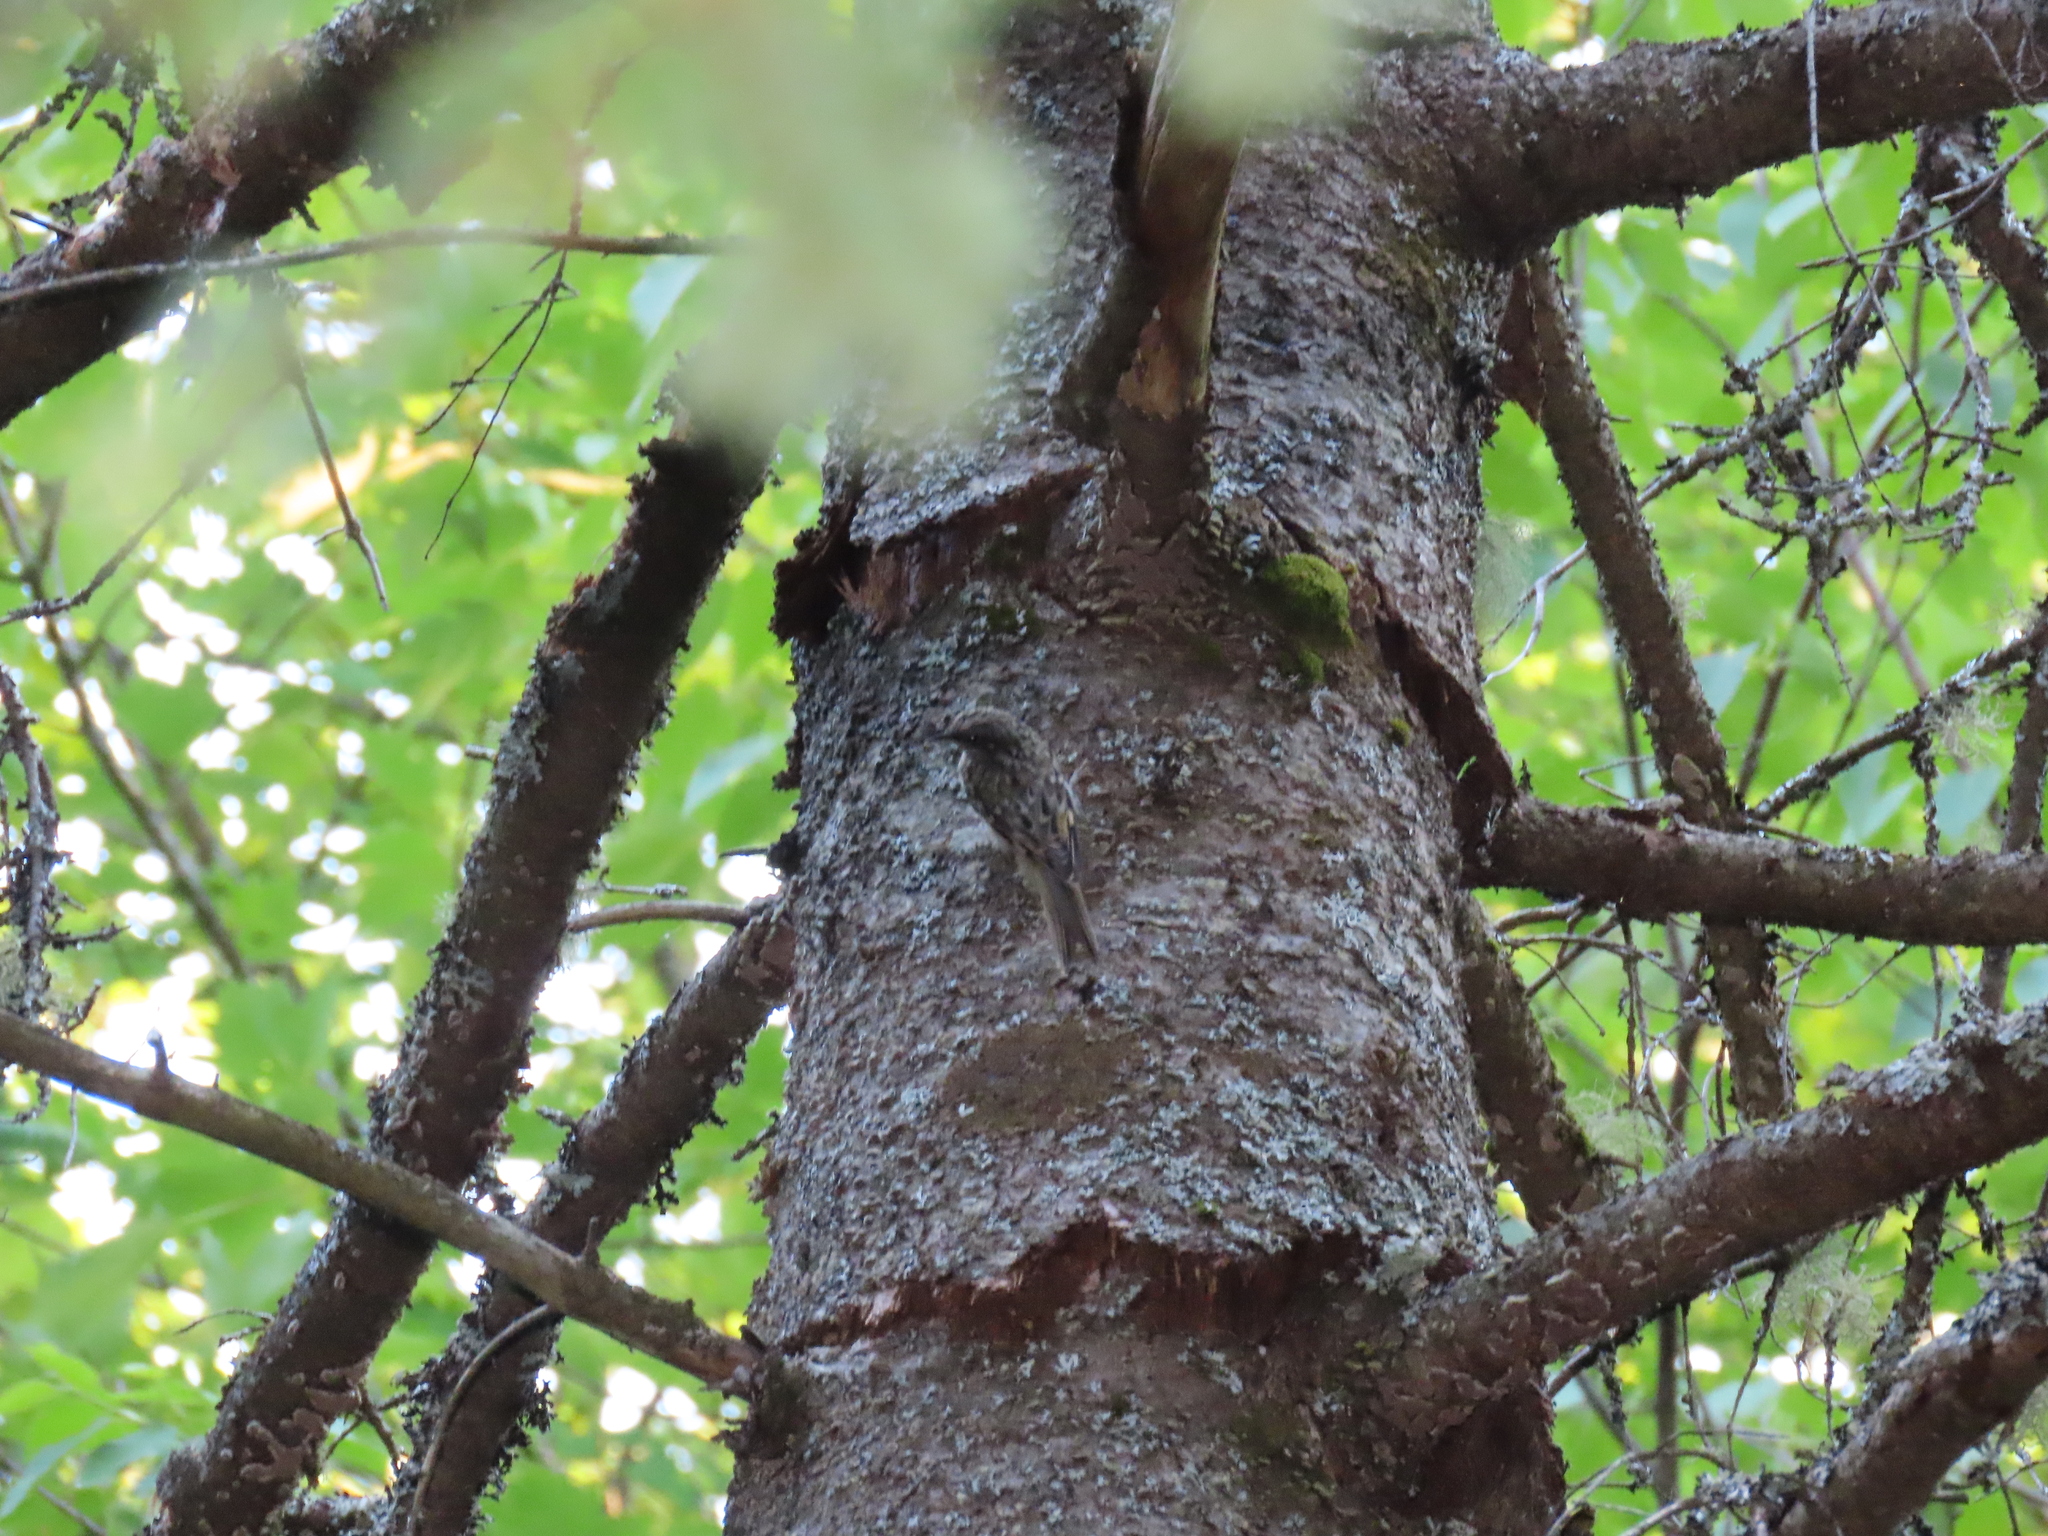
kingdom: Animalia
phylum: Chordata
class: Aves
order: Passeriformes
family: Certhiidae
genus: Certhia
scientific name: Certhia americana
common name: Brown creeper
